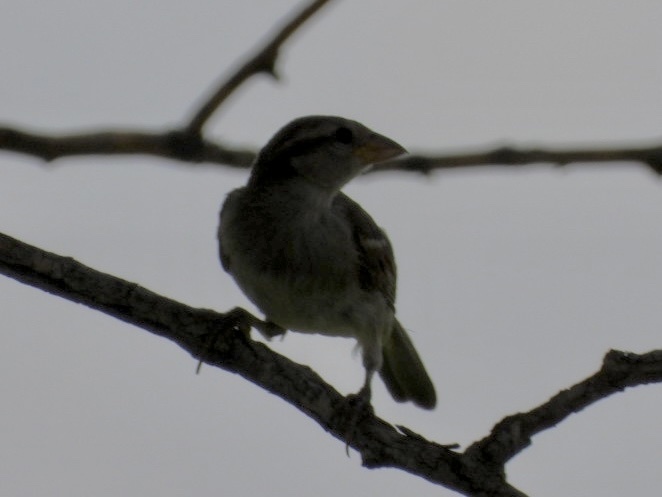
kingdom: Animalia
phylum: Chordata
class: Aves
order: Passeriformes
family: Passeridae
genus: Passer
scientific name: Passer domesticus
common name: House sparrow
